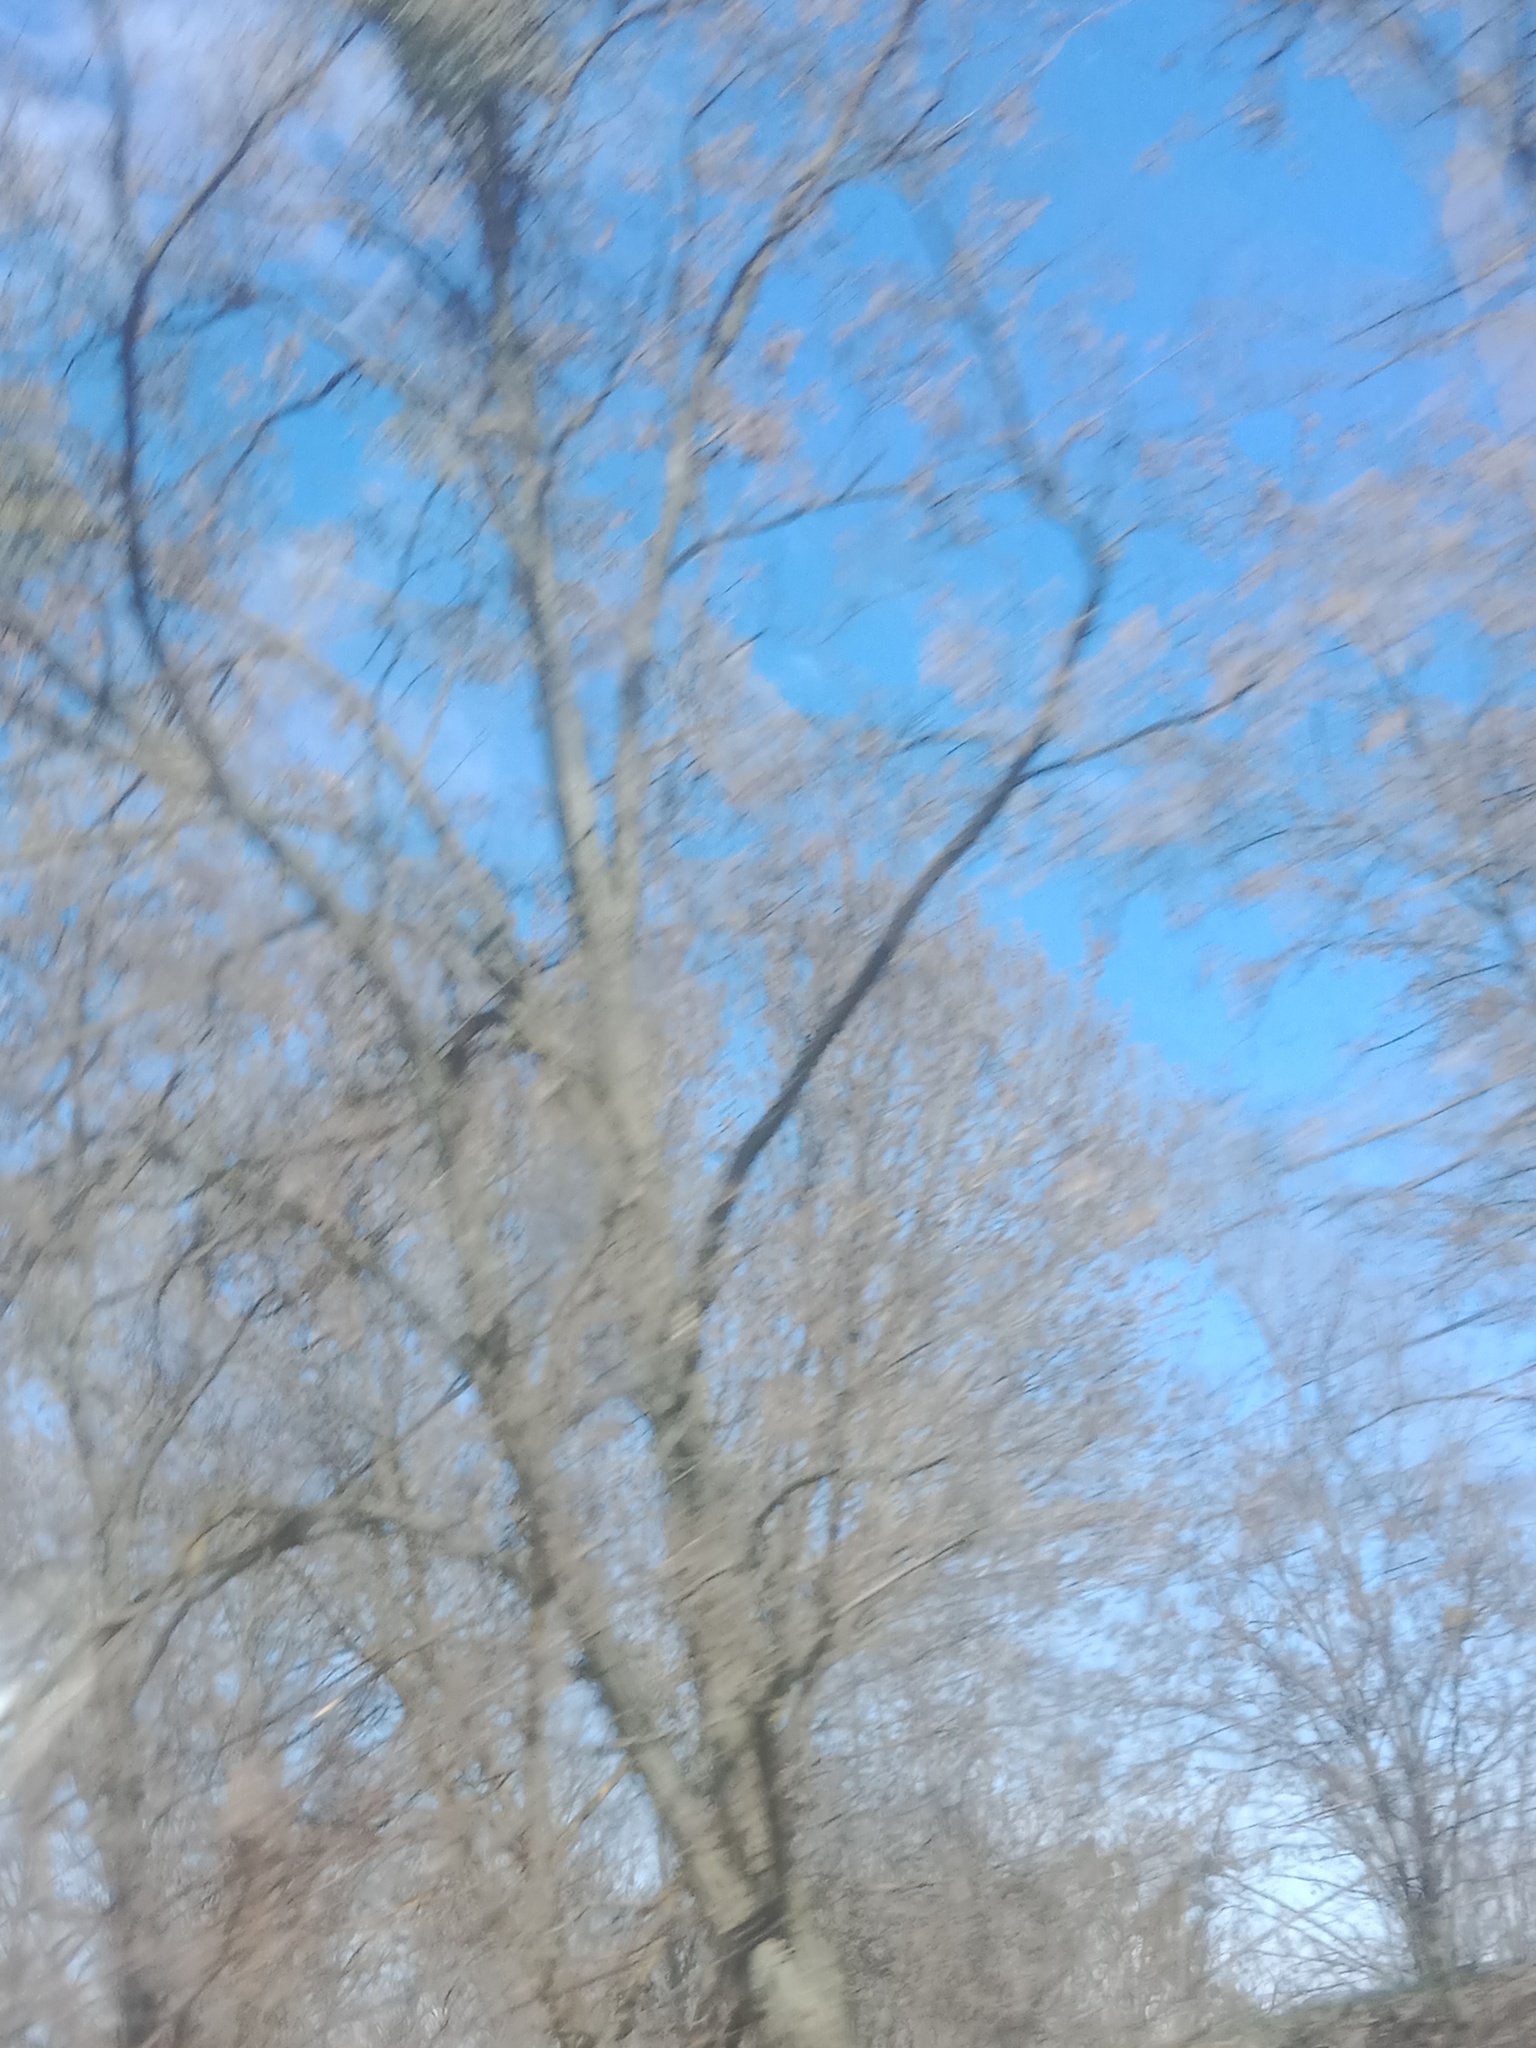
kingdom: Plantae
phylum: Tracheophyta
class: Magnoliopsida
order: Santalales
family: Viscaceae
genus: Viscum
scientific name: Viscum album
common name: Mistletoe
